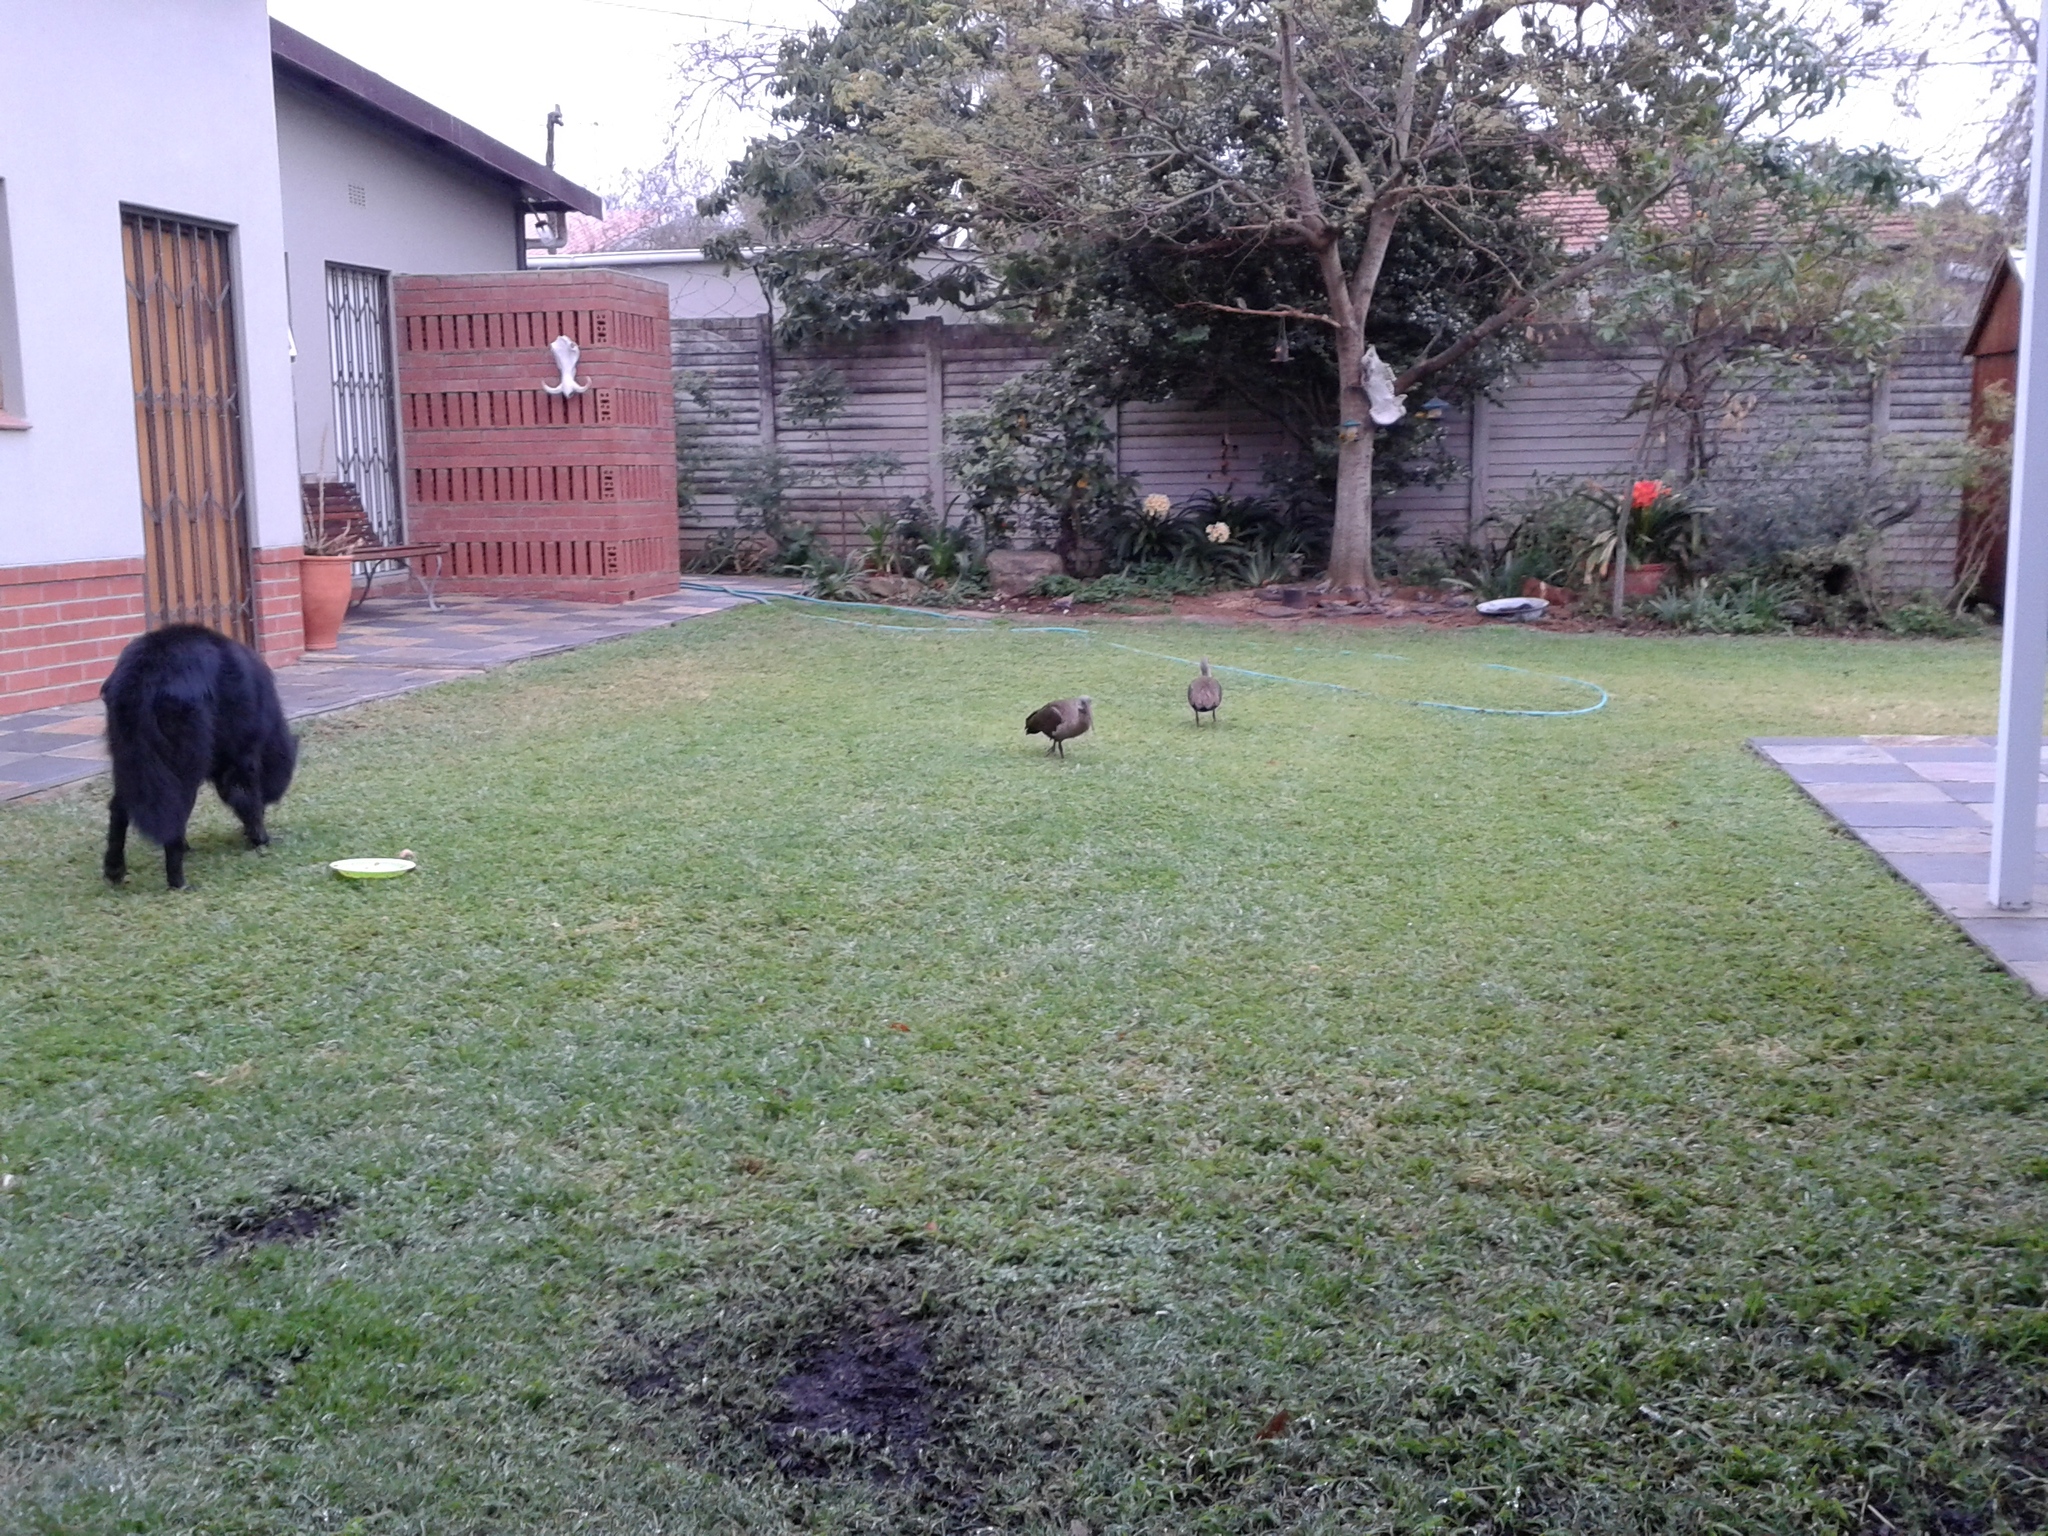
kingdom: Animalia
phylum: Chordata
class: Aves
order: Pelecaniformes
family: Threskiornithidae
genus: Bostrychia
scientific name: Bostrychia hagedash
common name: Hadada ibis
